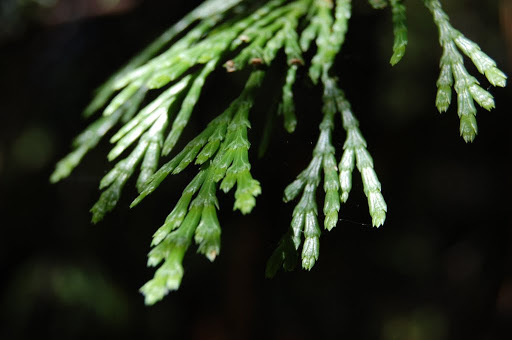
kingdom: Plantae
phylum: Tracheophyta
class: Pinopsida
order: Pinales
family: Cupressaceae
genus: Calocedrus
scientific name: Calocedrus decurrens
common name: Californian incense-cedar
